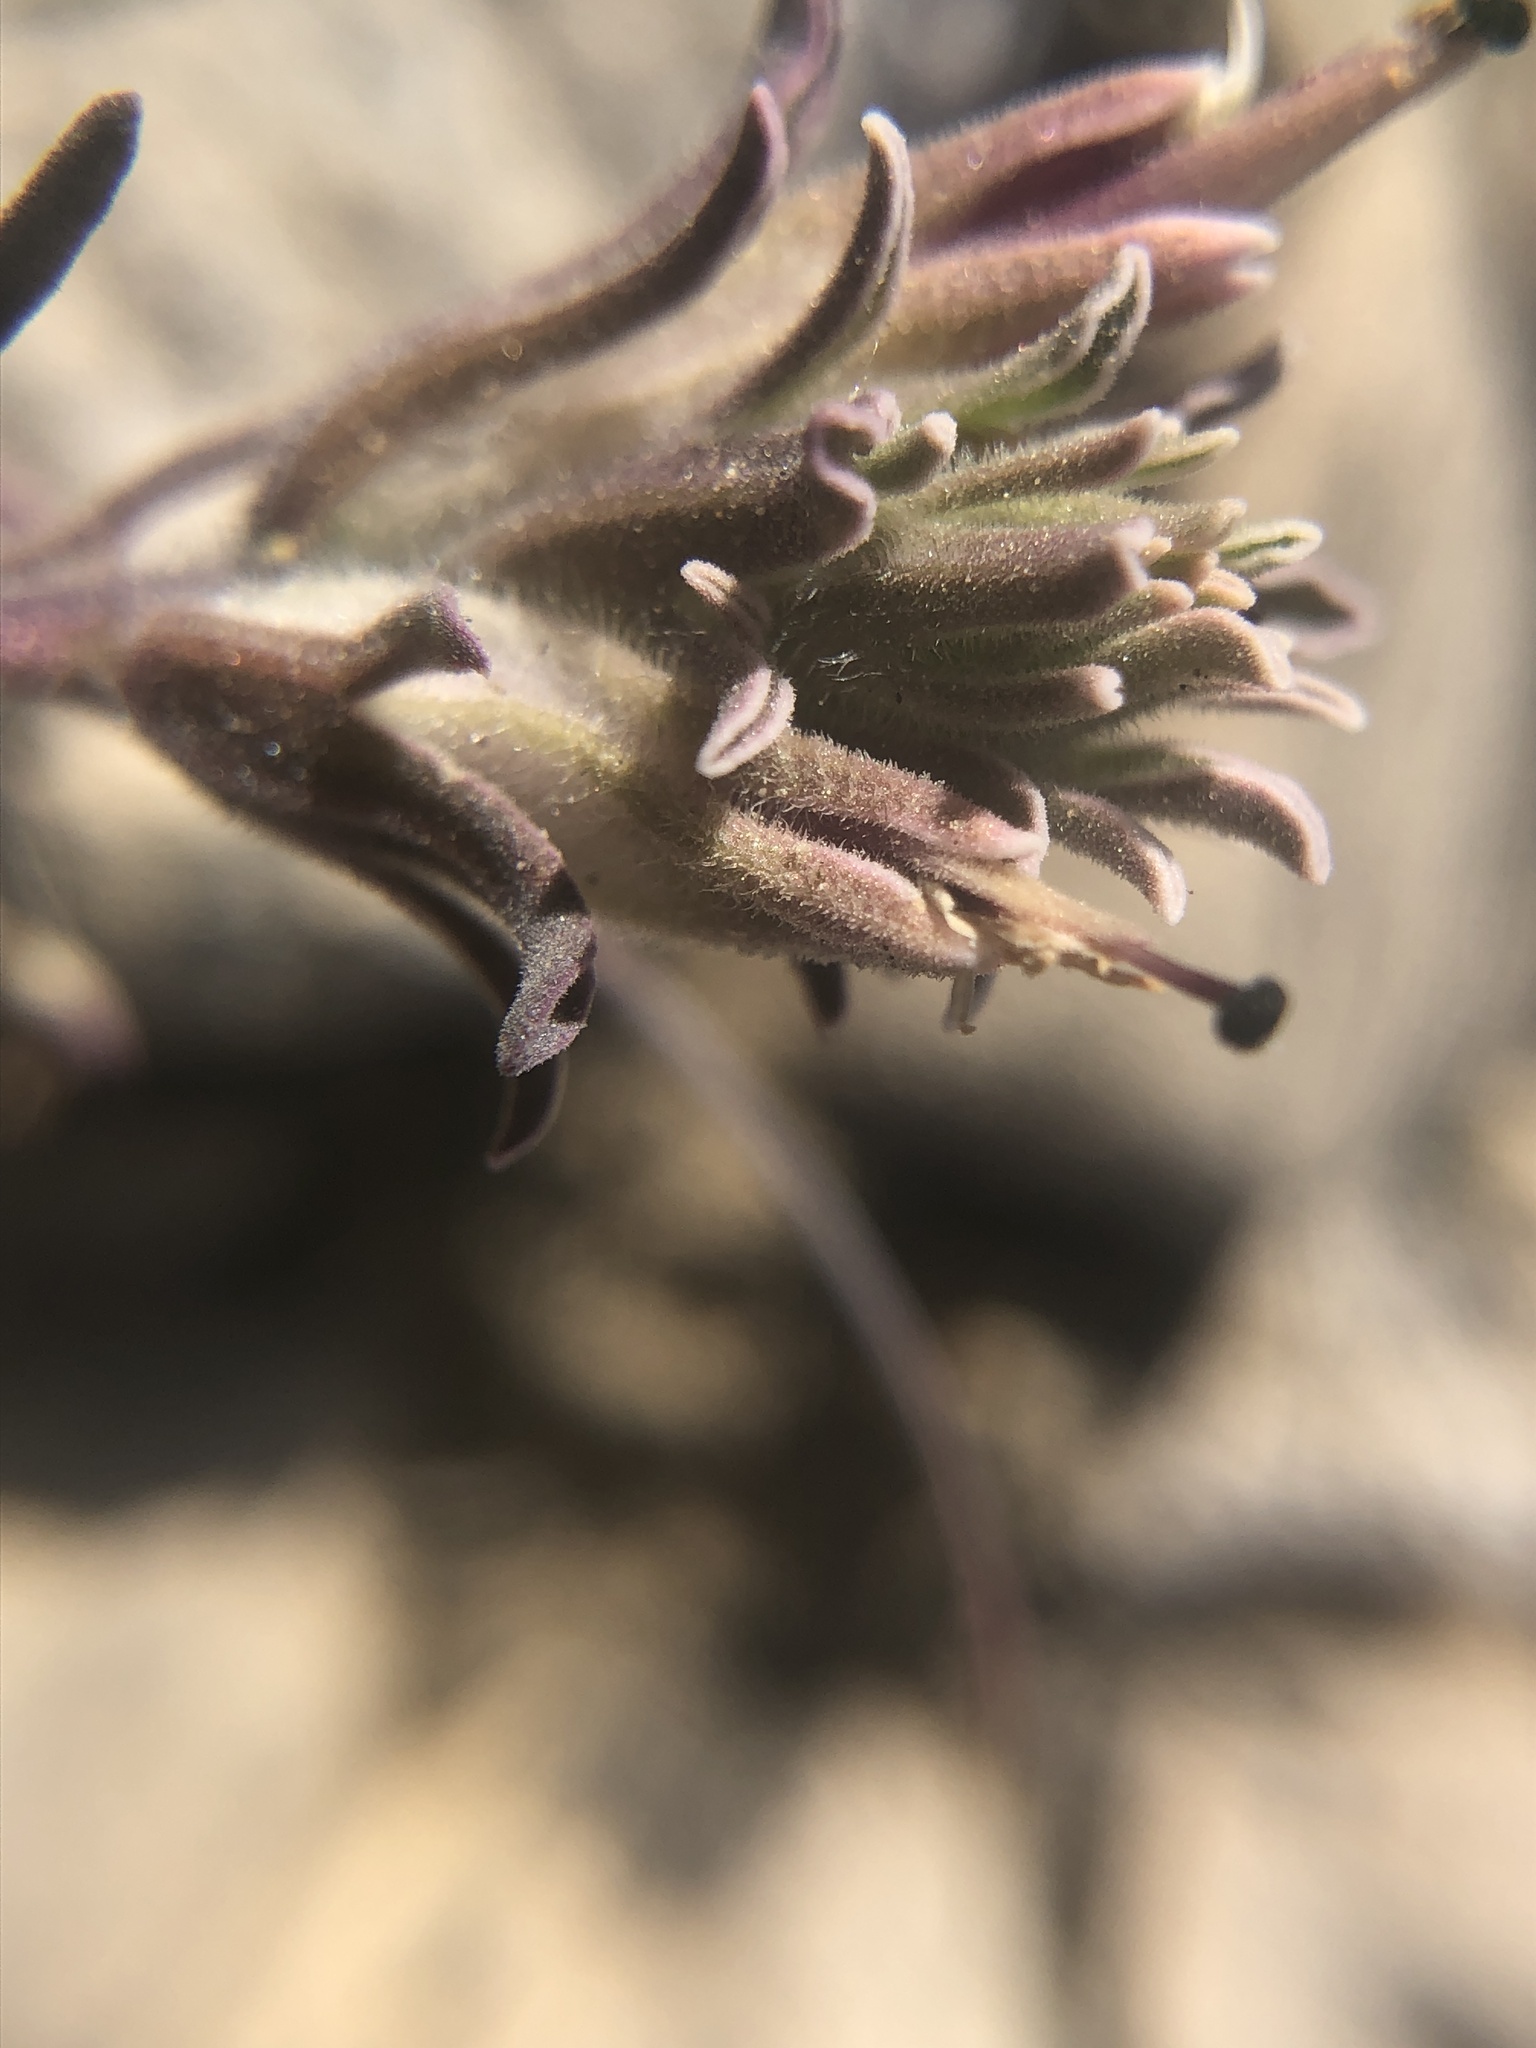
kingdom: Plantae
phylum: Tracheophyta
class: Magnoliopsida
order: Lamiales
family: Orobanchaceae
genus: Castilleja
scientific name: Castilleja nana
